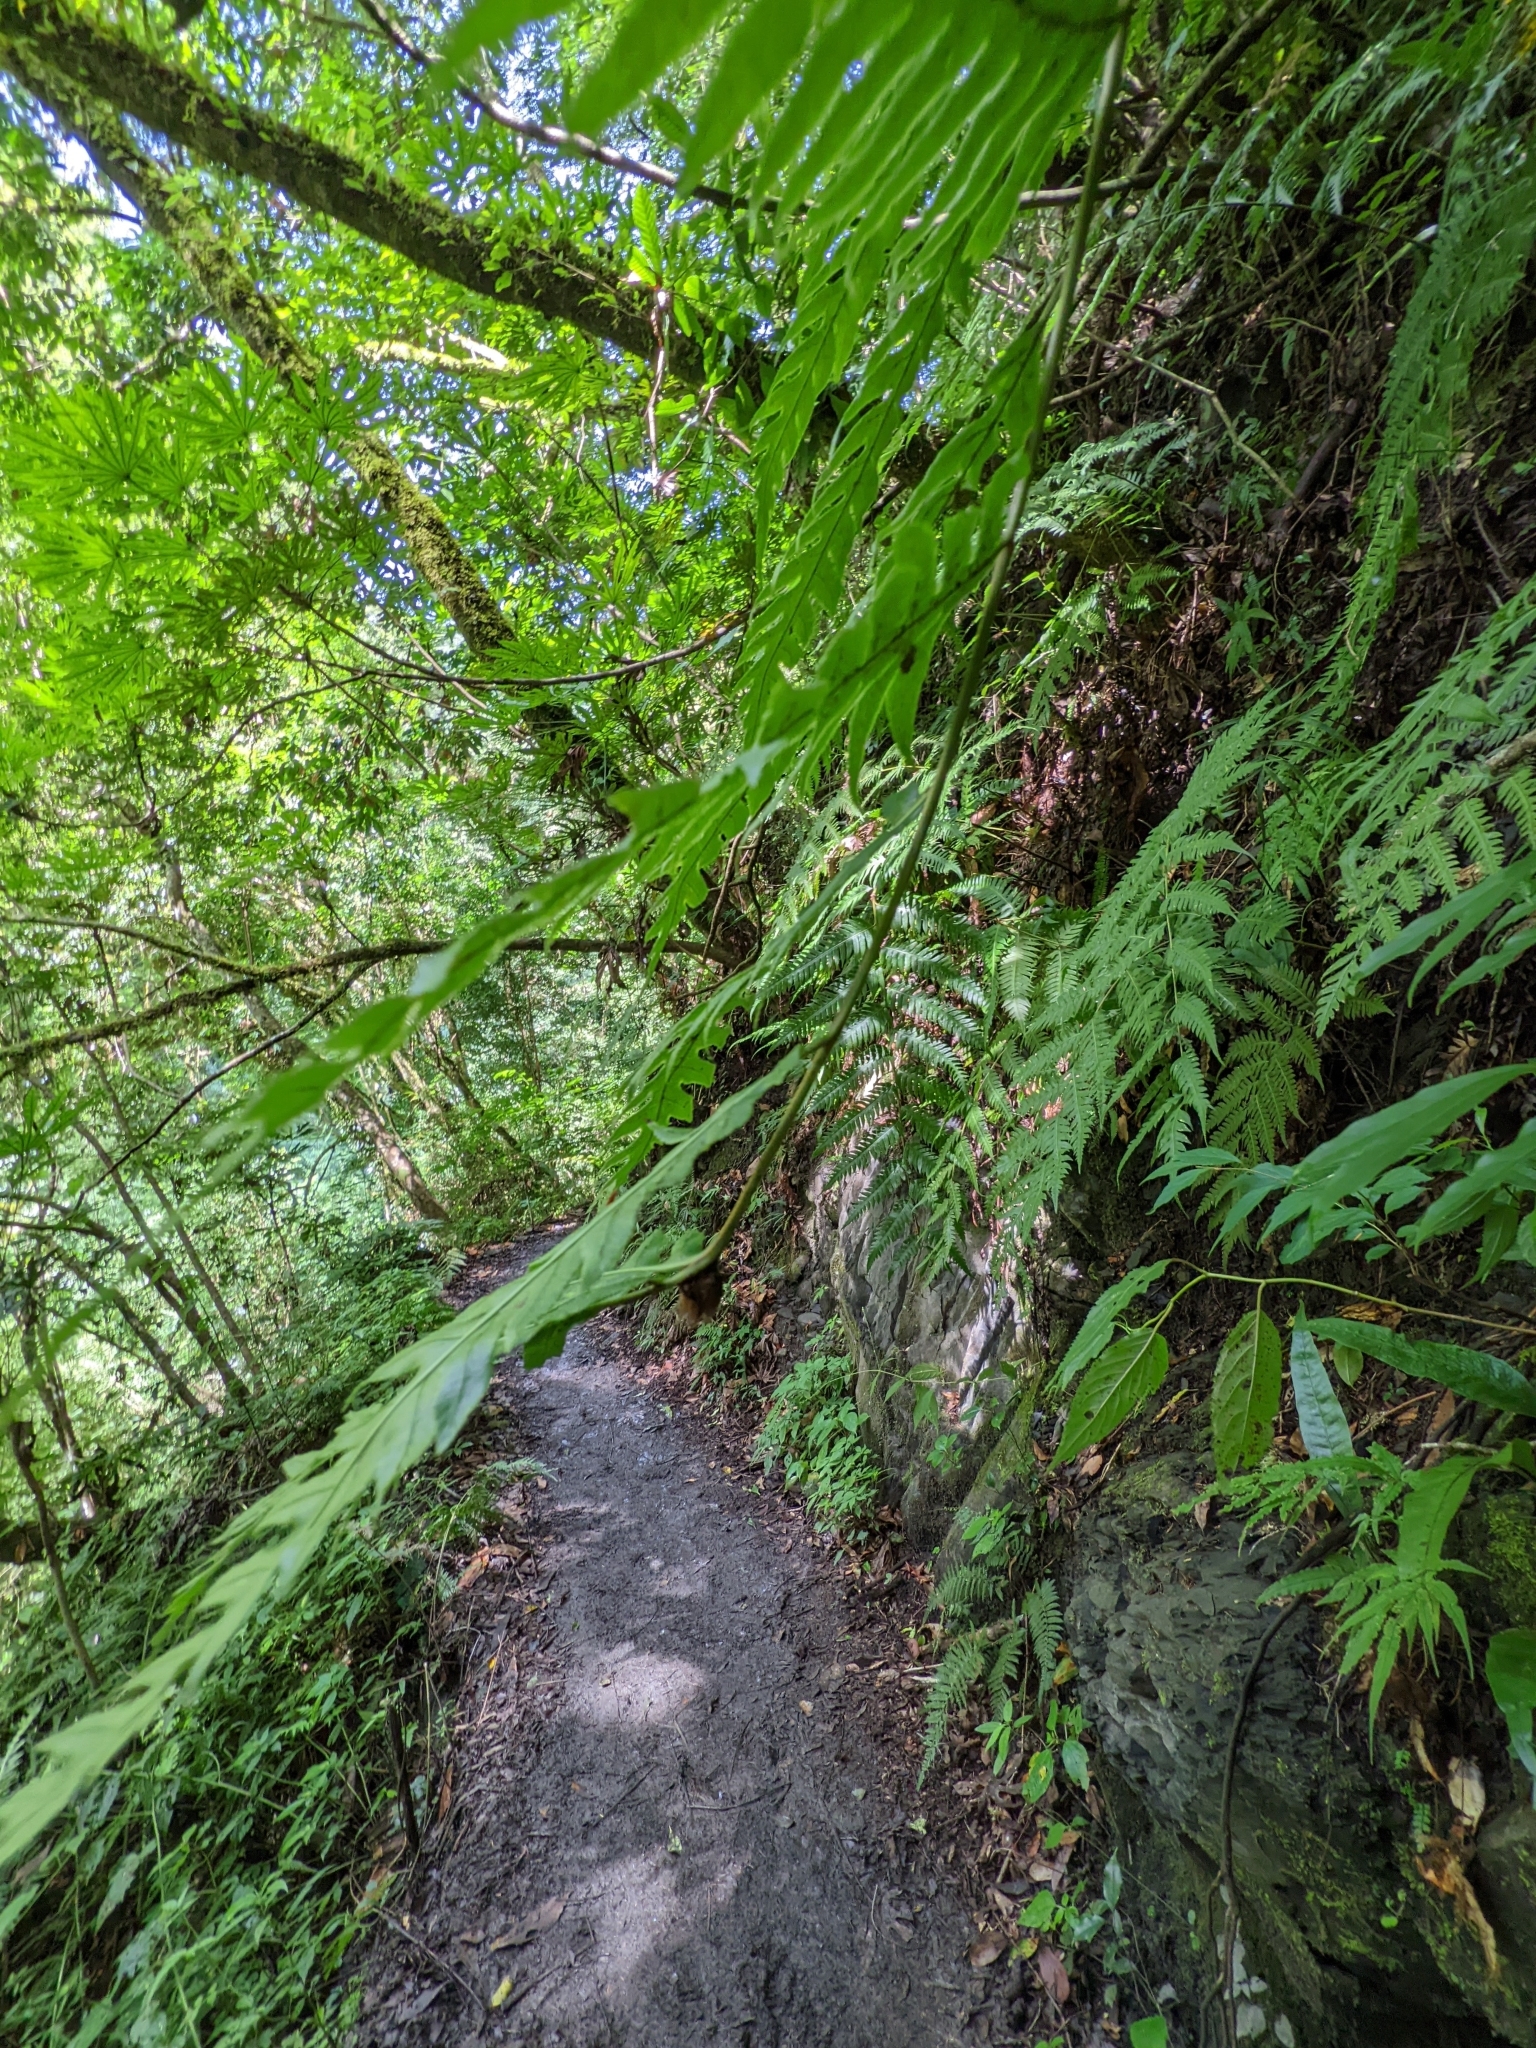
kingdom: Plantae
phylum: Tracheophyta
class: Polypodiopsida
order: Polypodiales
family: Blechnaceae
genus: Woodwardia
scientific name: Woodwardia unigemmata
